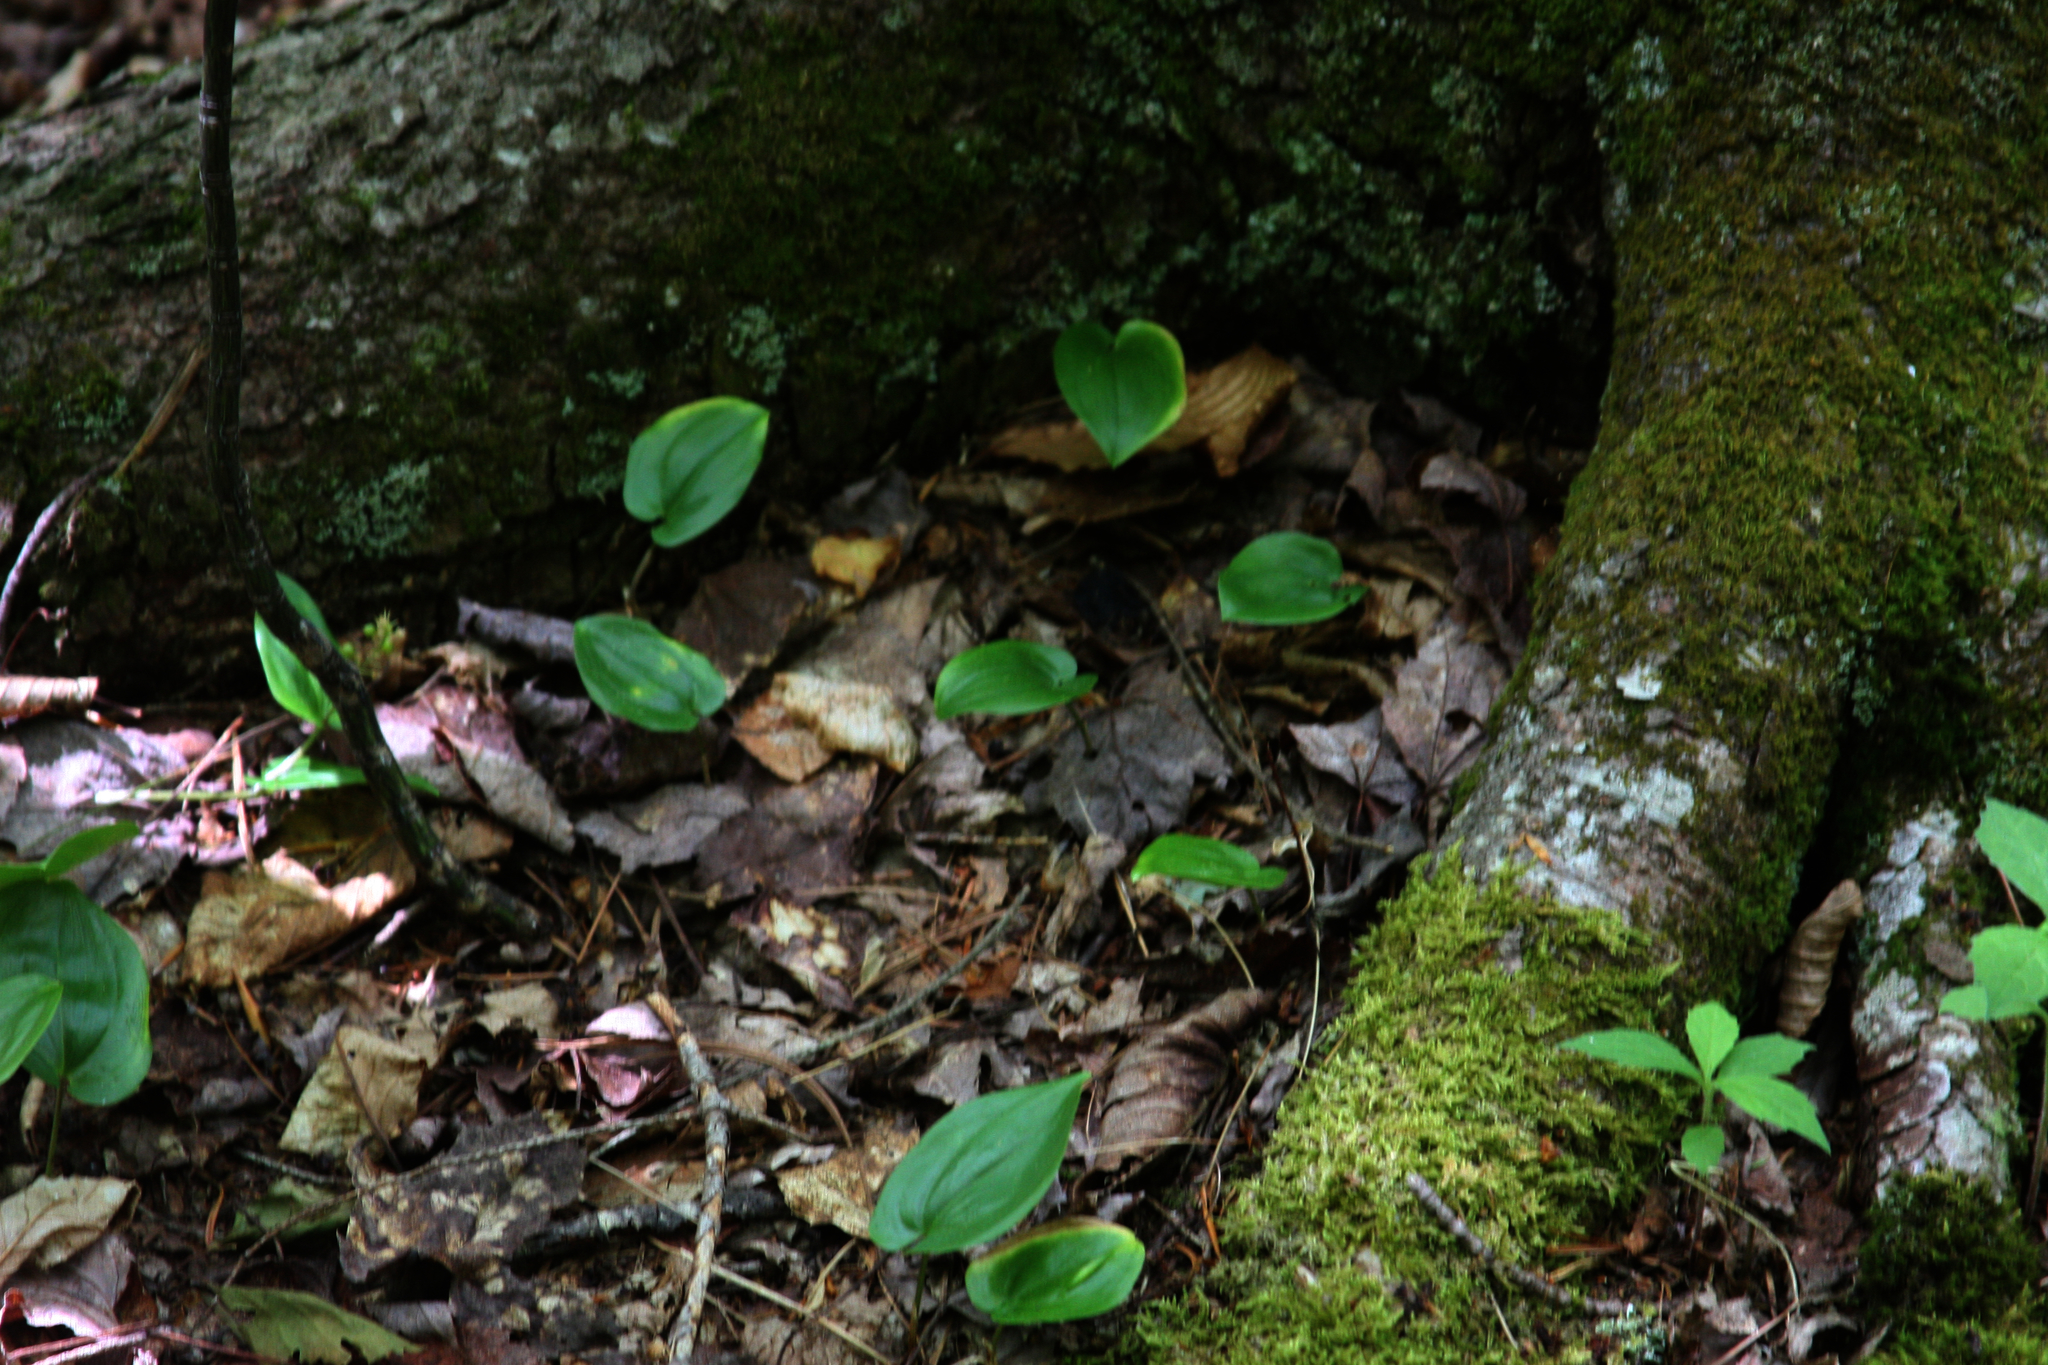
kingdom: Plantae
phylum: Tracheophyta
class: Liliopsida
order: Asparagales
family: Asparagaceae
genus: Maianthemum
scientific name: Maianthemum canadense
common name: False lily-of-the-valley
